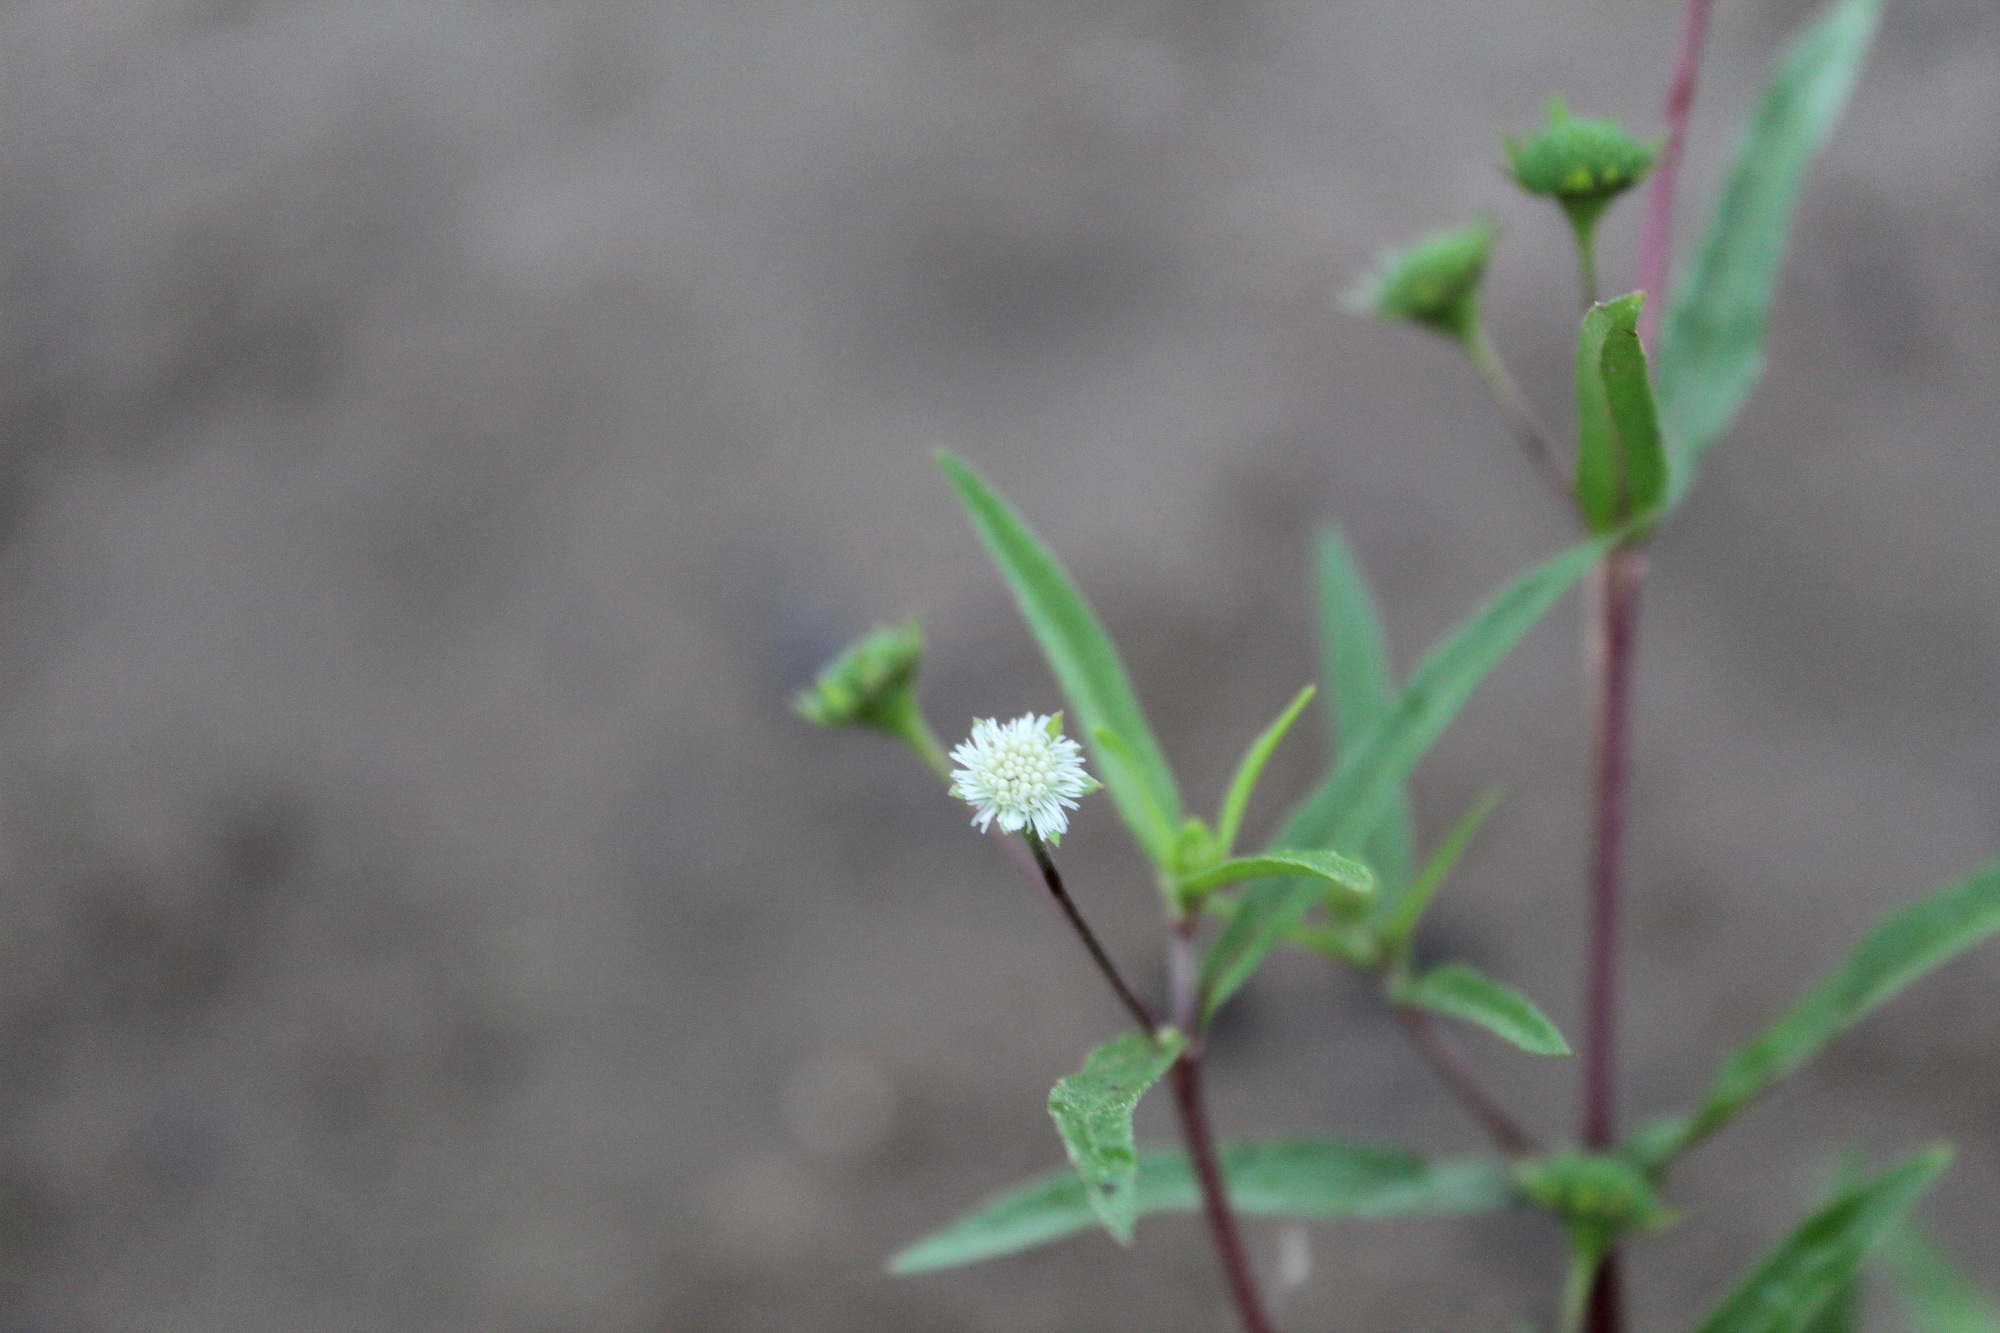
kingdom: Plantae
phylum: Tracheophyta
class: Magnoliopsida
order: Asterales
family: Asteraceae
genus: Eclipta
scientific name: Eclipta prostrata
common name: False daisy
